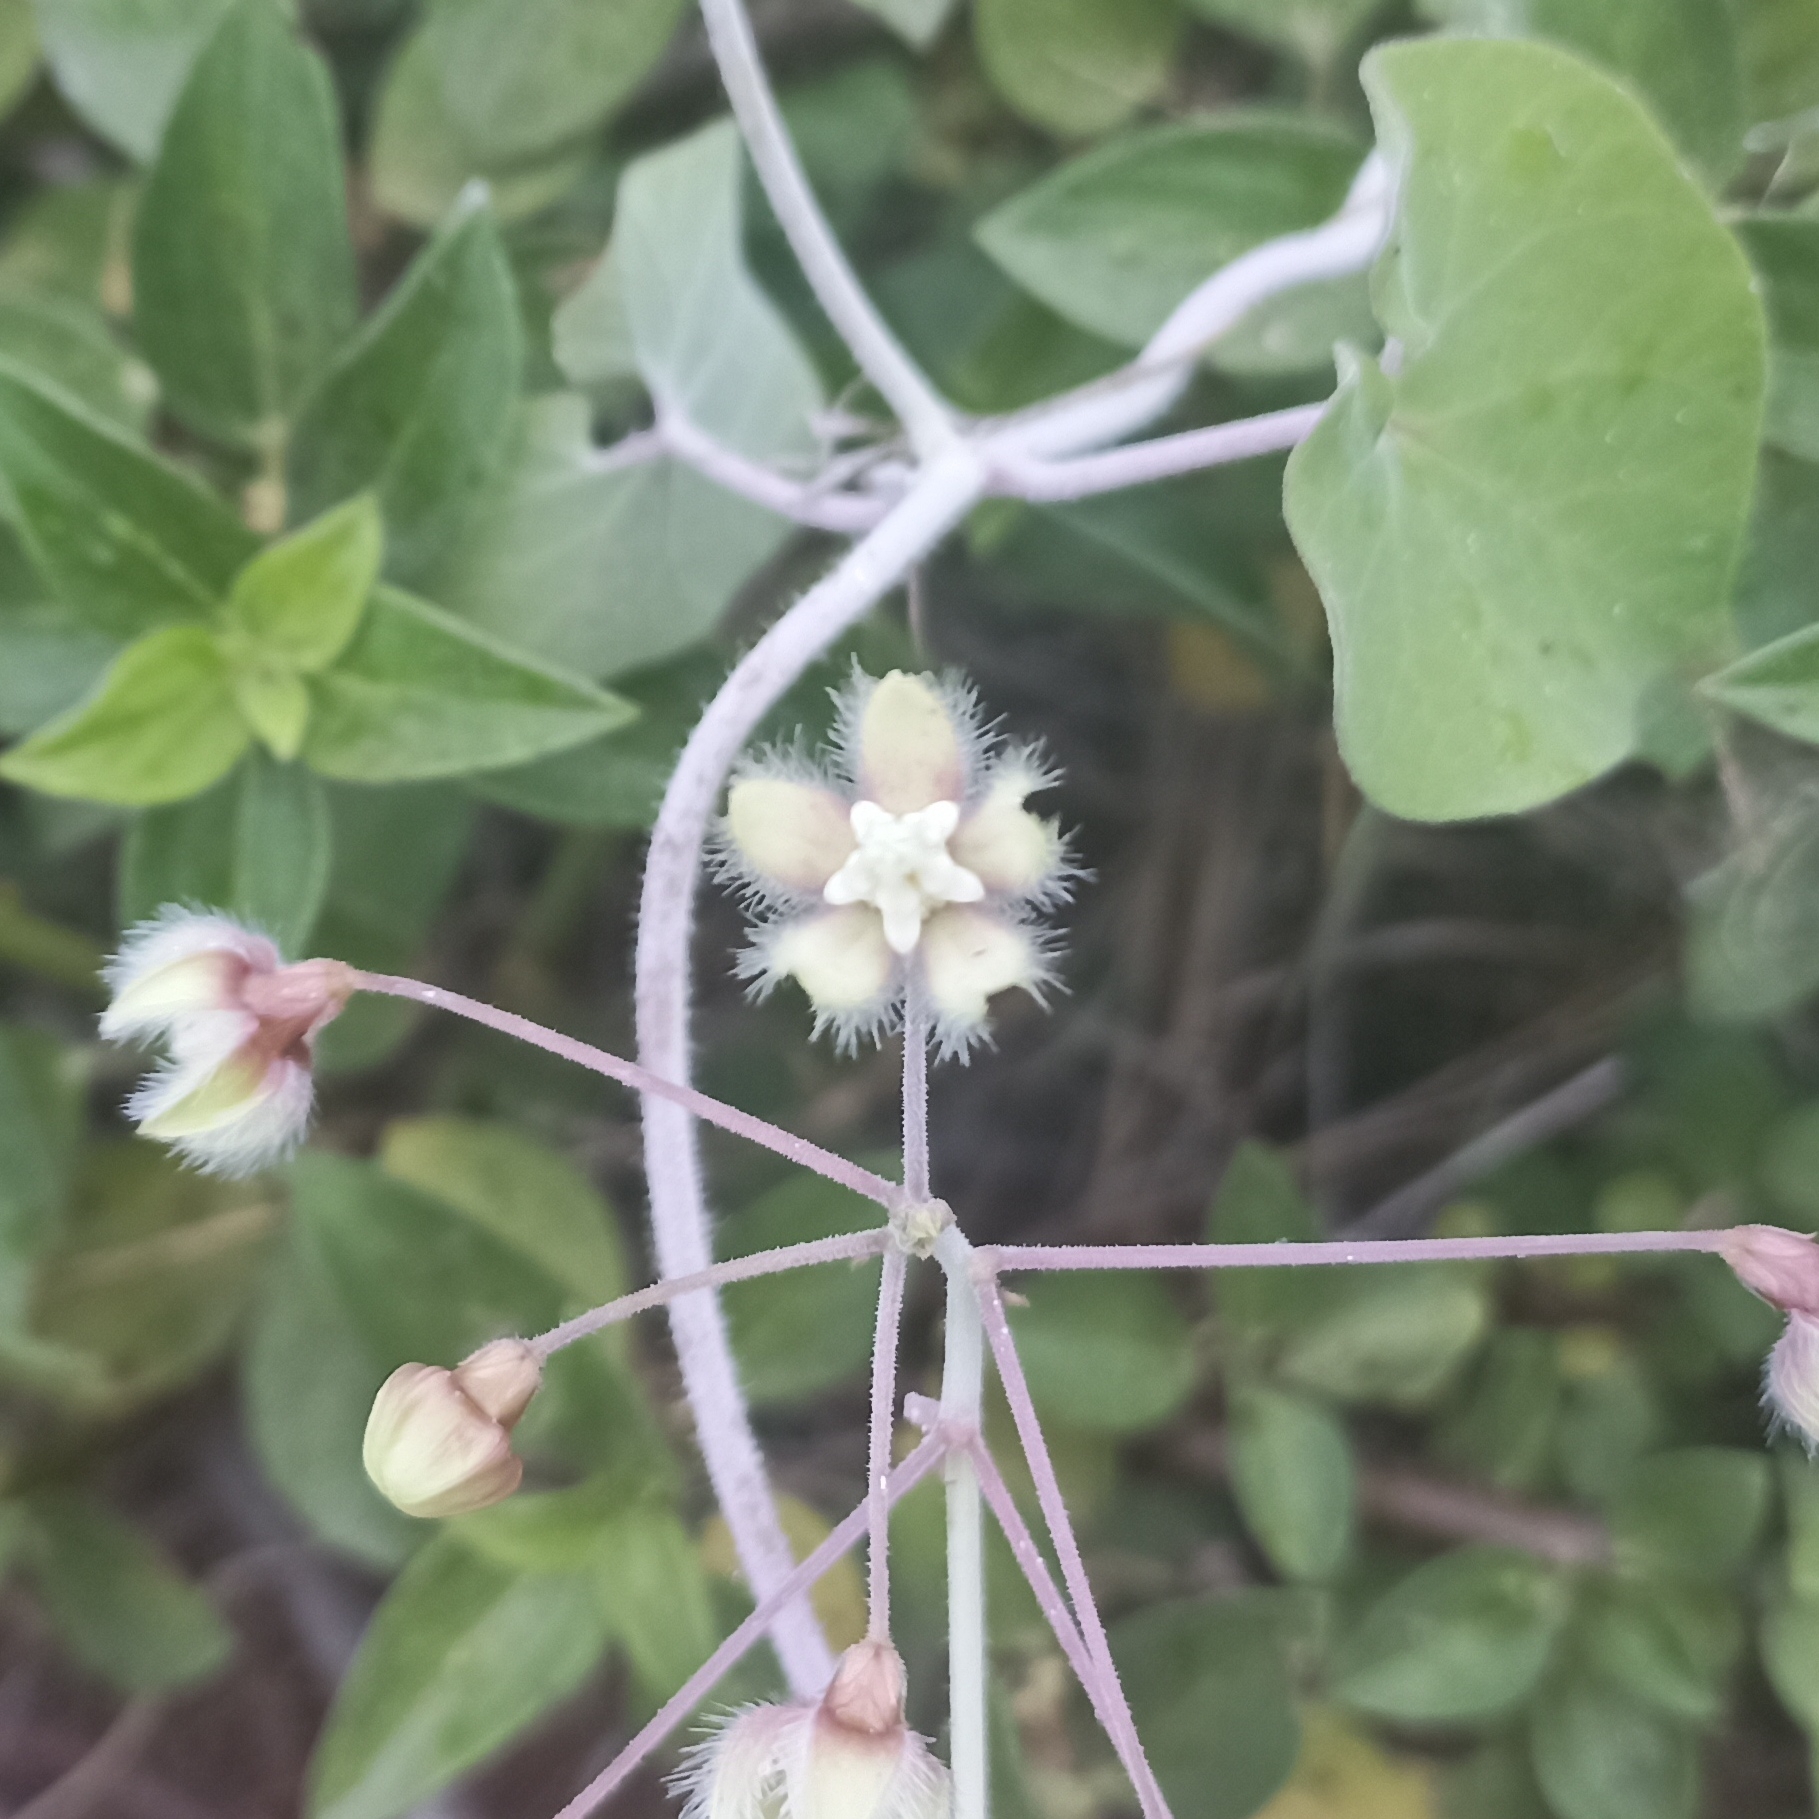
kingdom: Plantae
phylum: Tracheophyta
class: Magnoliopsida
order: Gentianales
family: Apocynaceae
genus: Pergularia
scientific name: Pergularia daemia
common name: Trellis-vine
